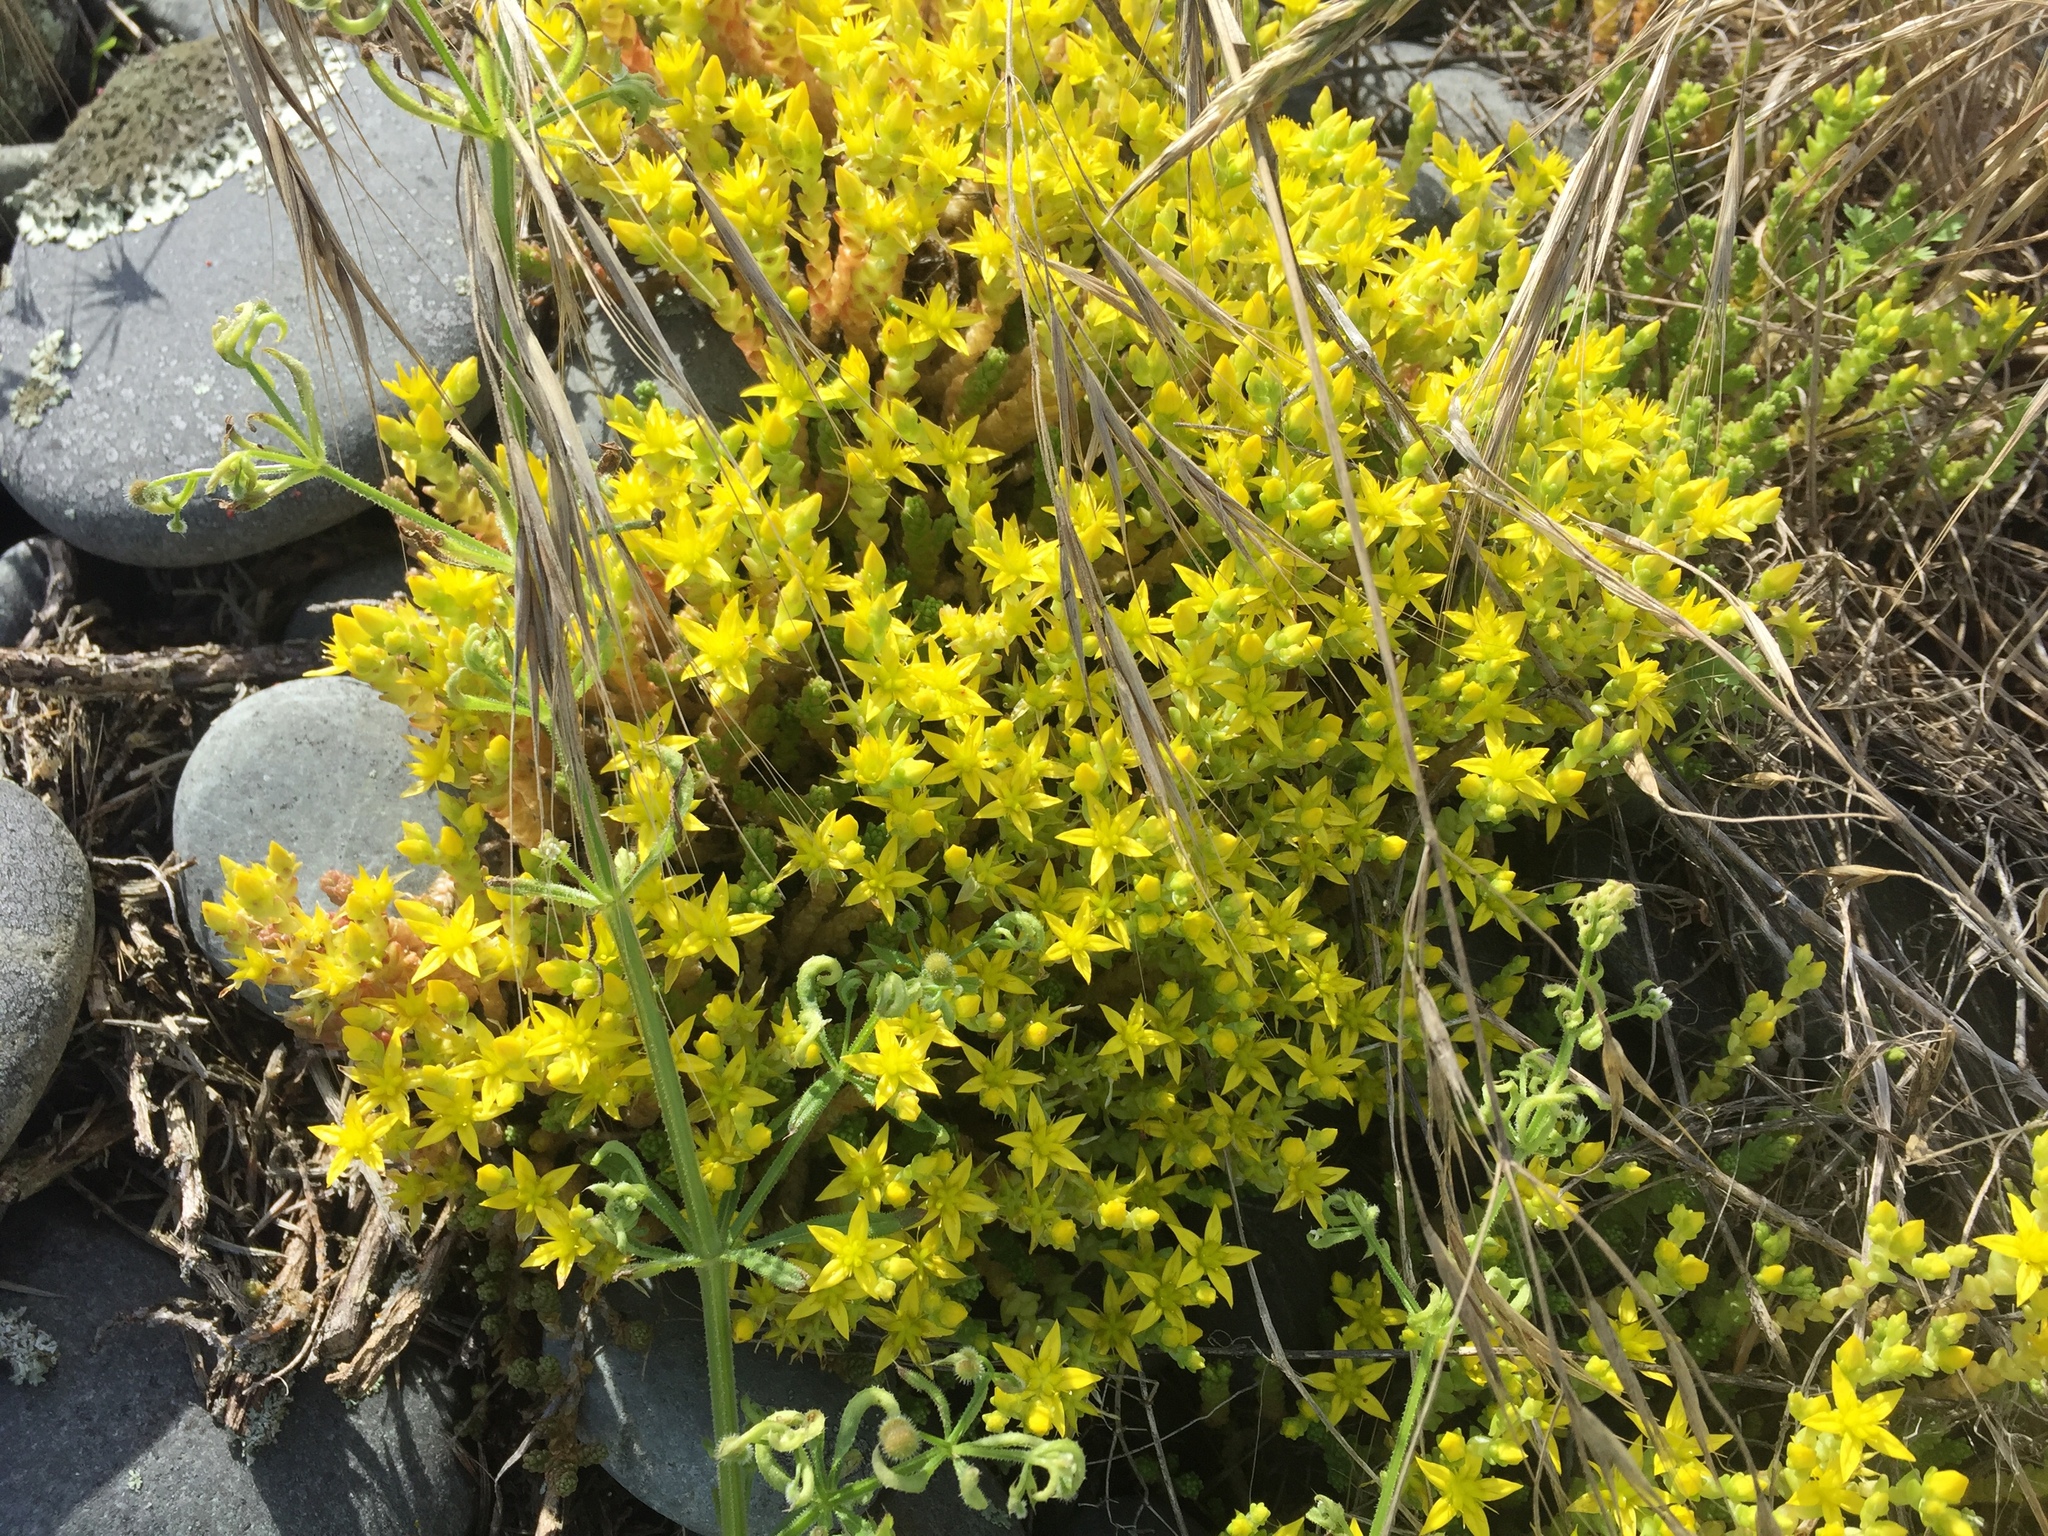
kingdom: Plantae
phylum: Tracheophyta
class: Magnoliopsida
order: Saxifragales
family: Crassulaceae
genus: Sedum
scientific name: Sedum acre
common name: Biting stonecrop
